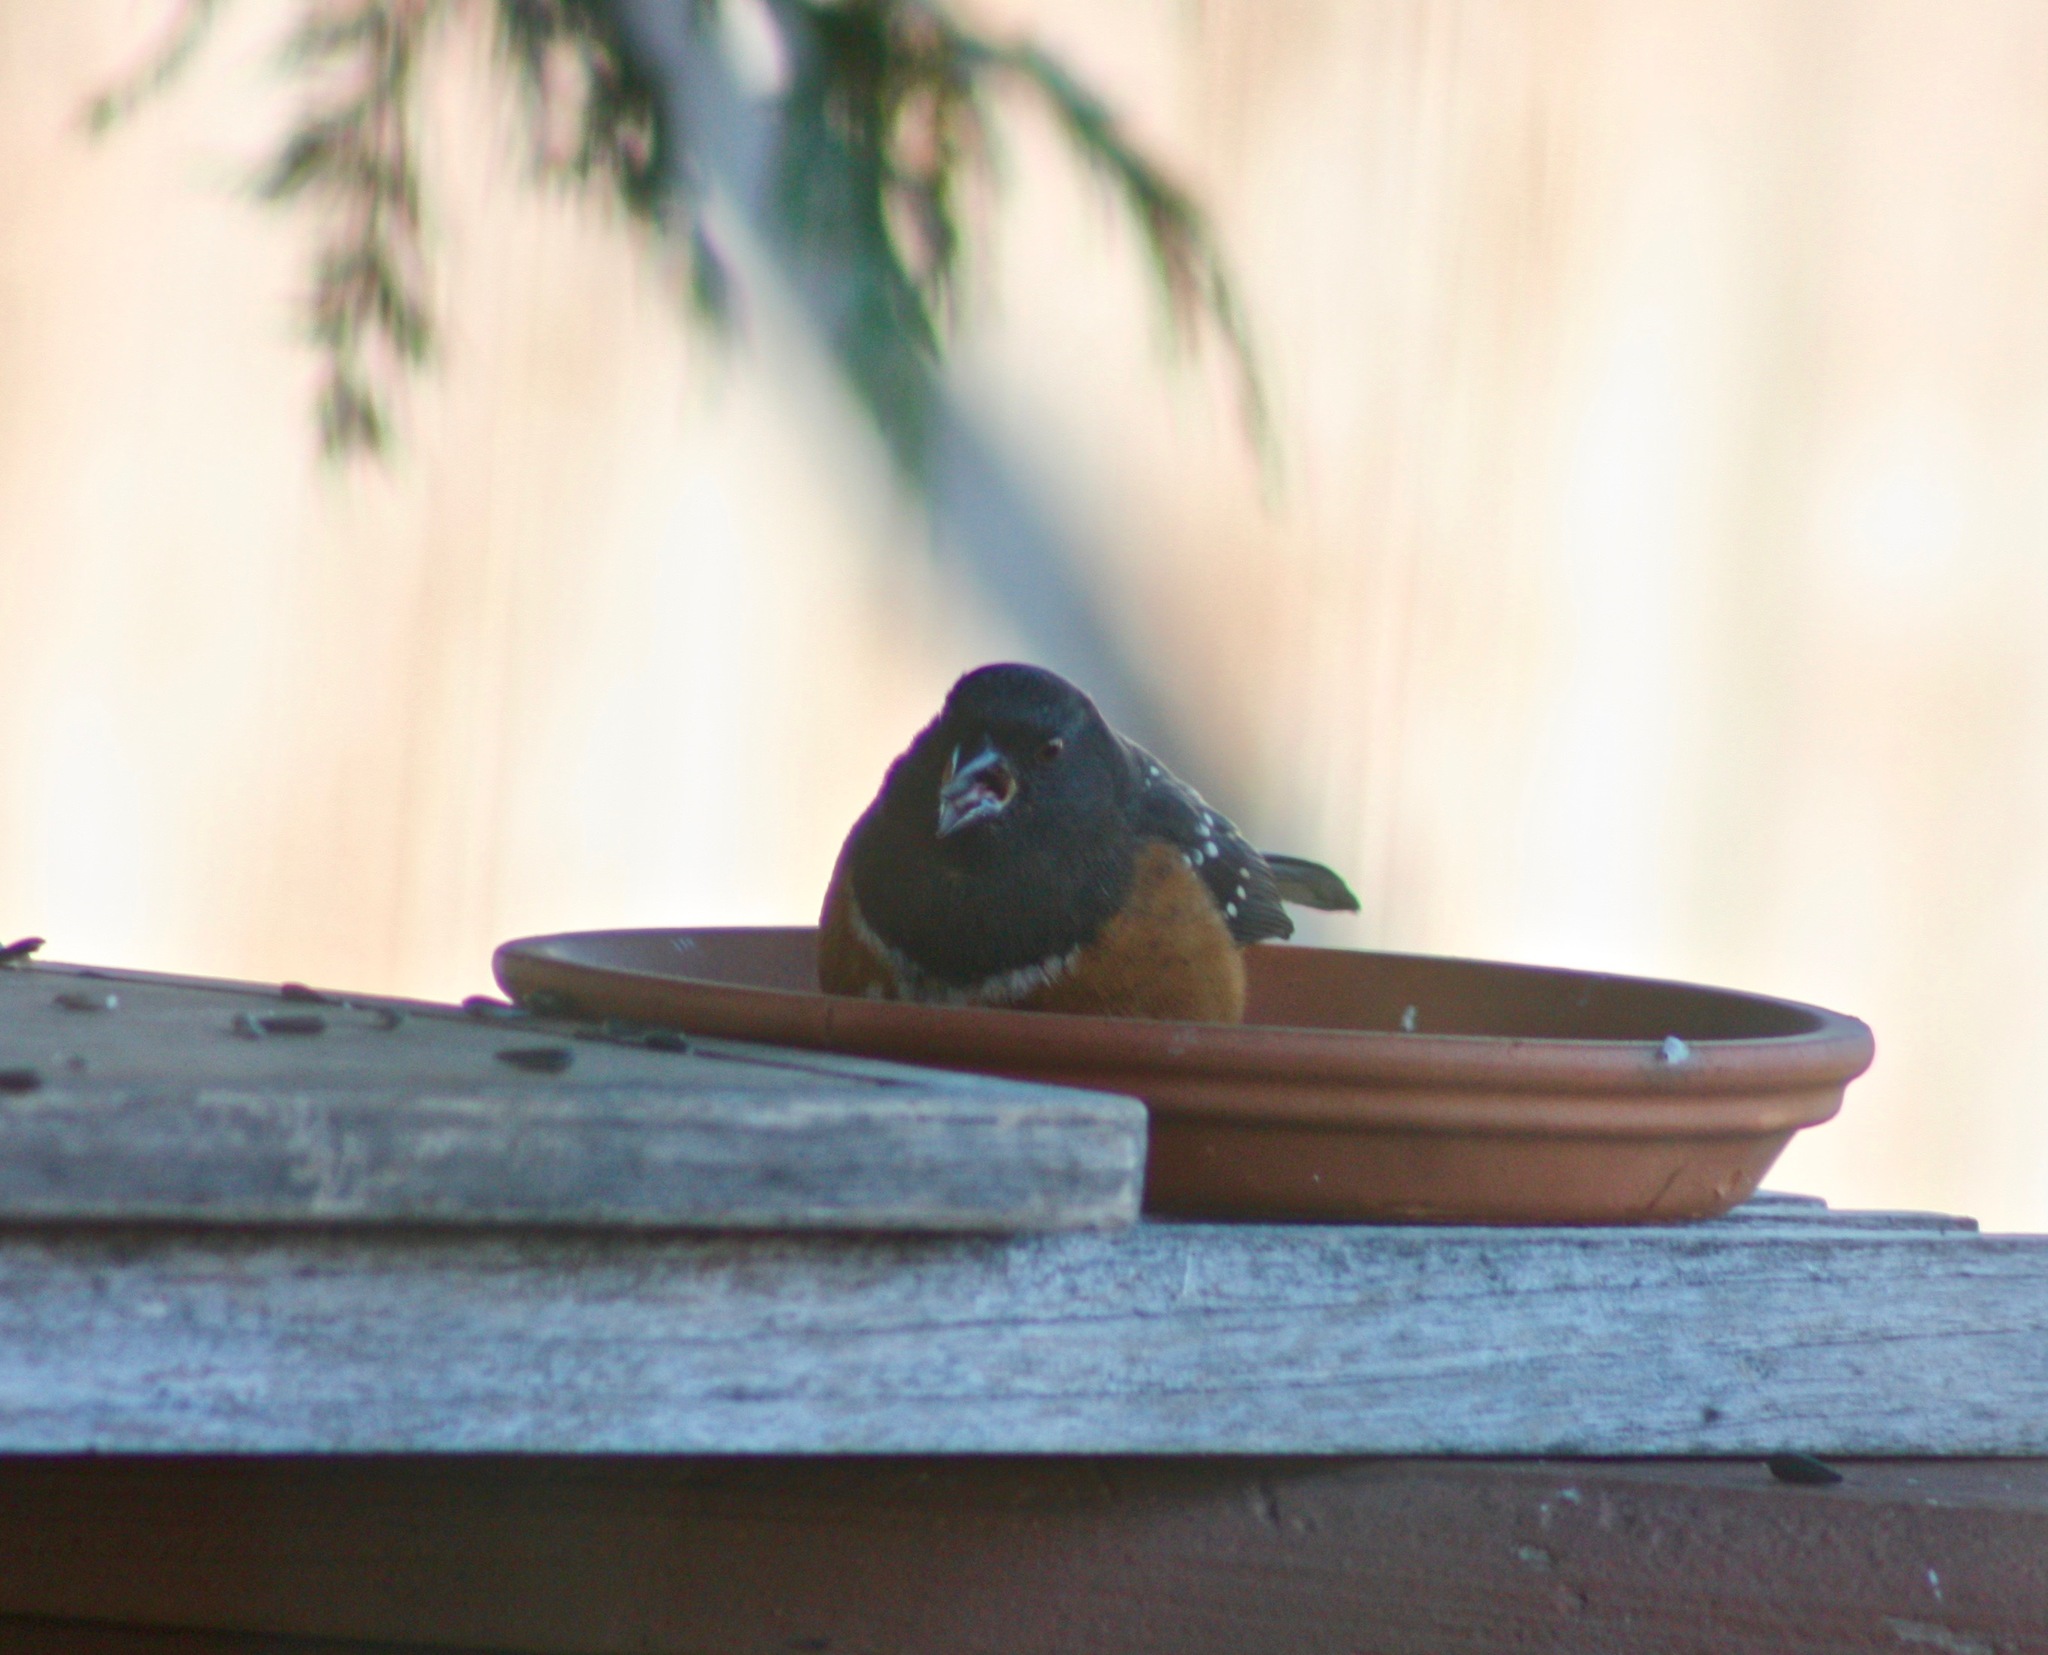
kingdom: Animalia
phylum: Chordata
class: Aves
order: Passeriformes
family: Passerellidae
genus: Pipilo
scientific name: Pipilo maculatus
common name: Spotted towhee
